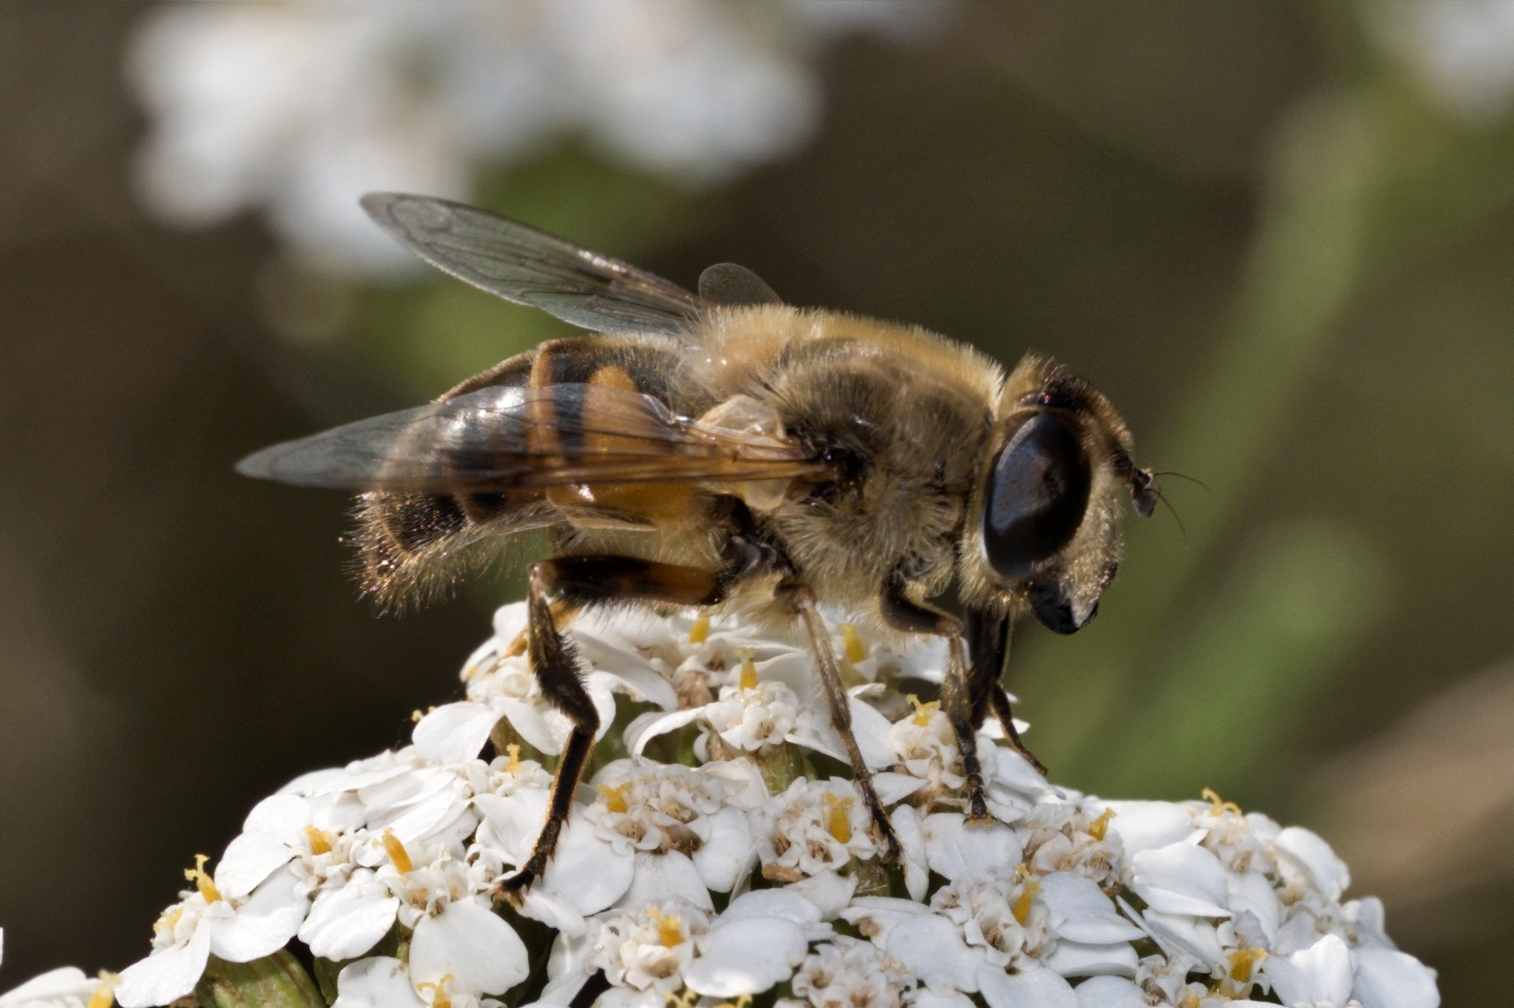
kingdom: Animalia
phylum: Arthropoda
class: Insecta
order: Diptera
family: Syrphidae
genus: Eristalis
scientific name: Eristalis tenax
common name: Drone fly
